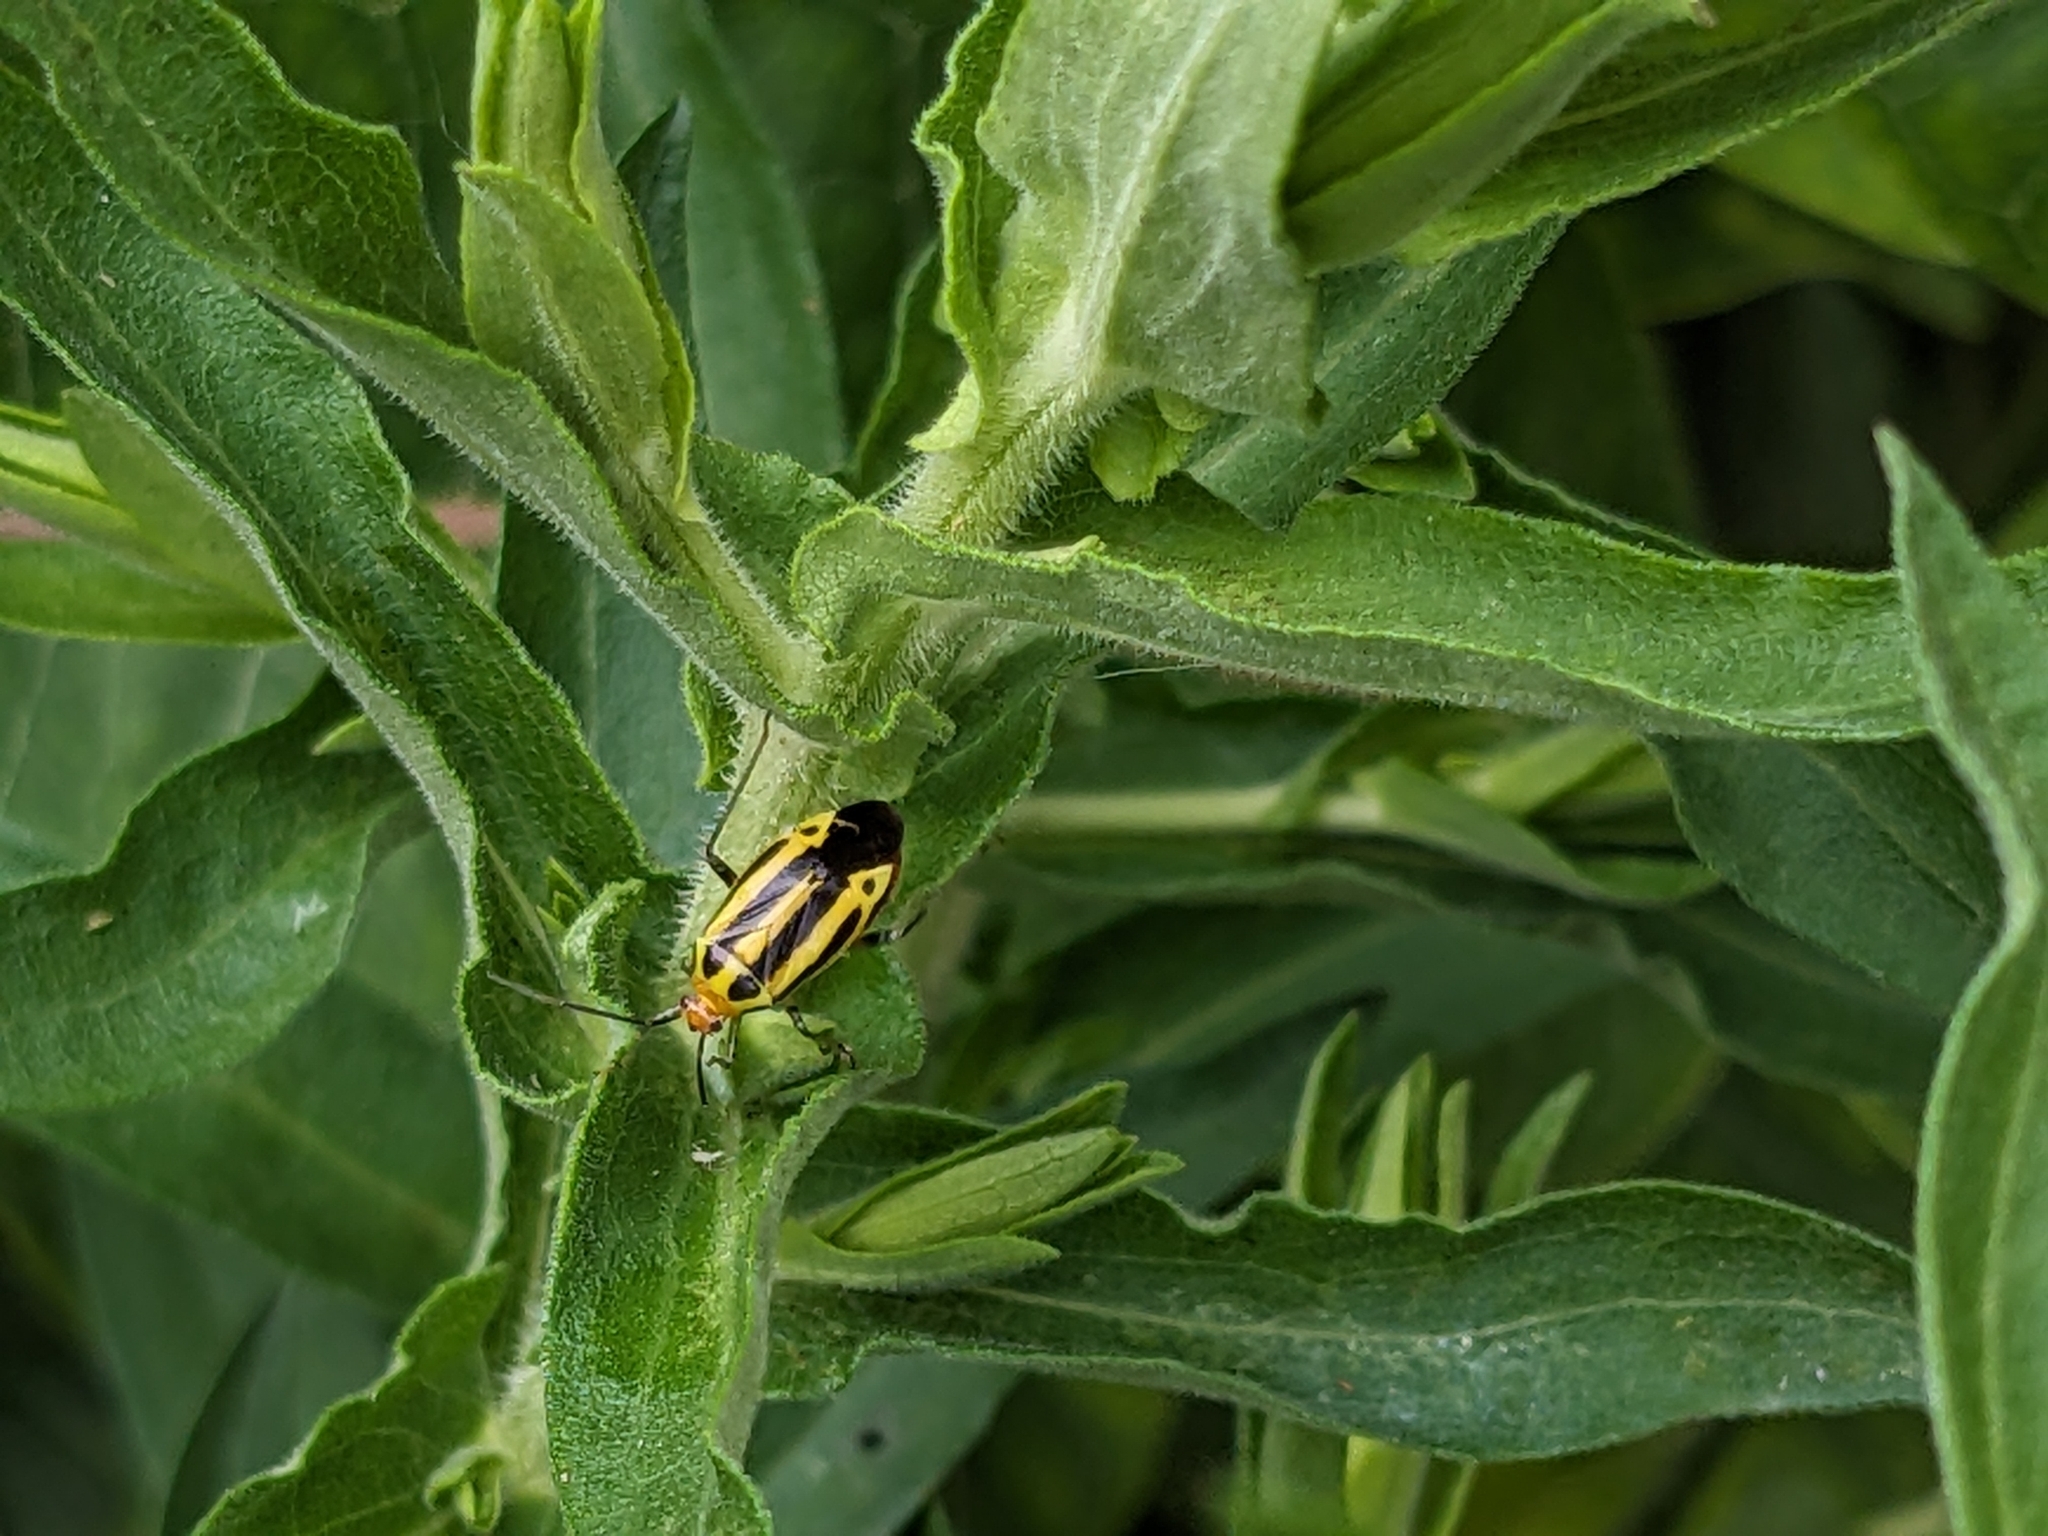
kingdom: Animalia
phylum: Arthropoda
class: Insecta
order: Hemiptera
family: Miridae
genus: Poecilocapsus
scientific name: Poecilocapsus lineatus
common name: Four-lined plant bug
